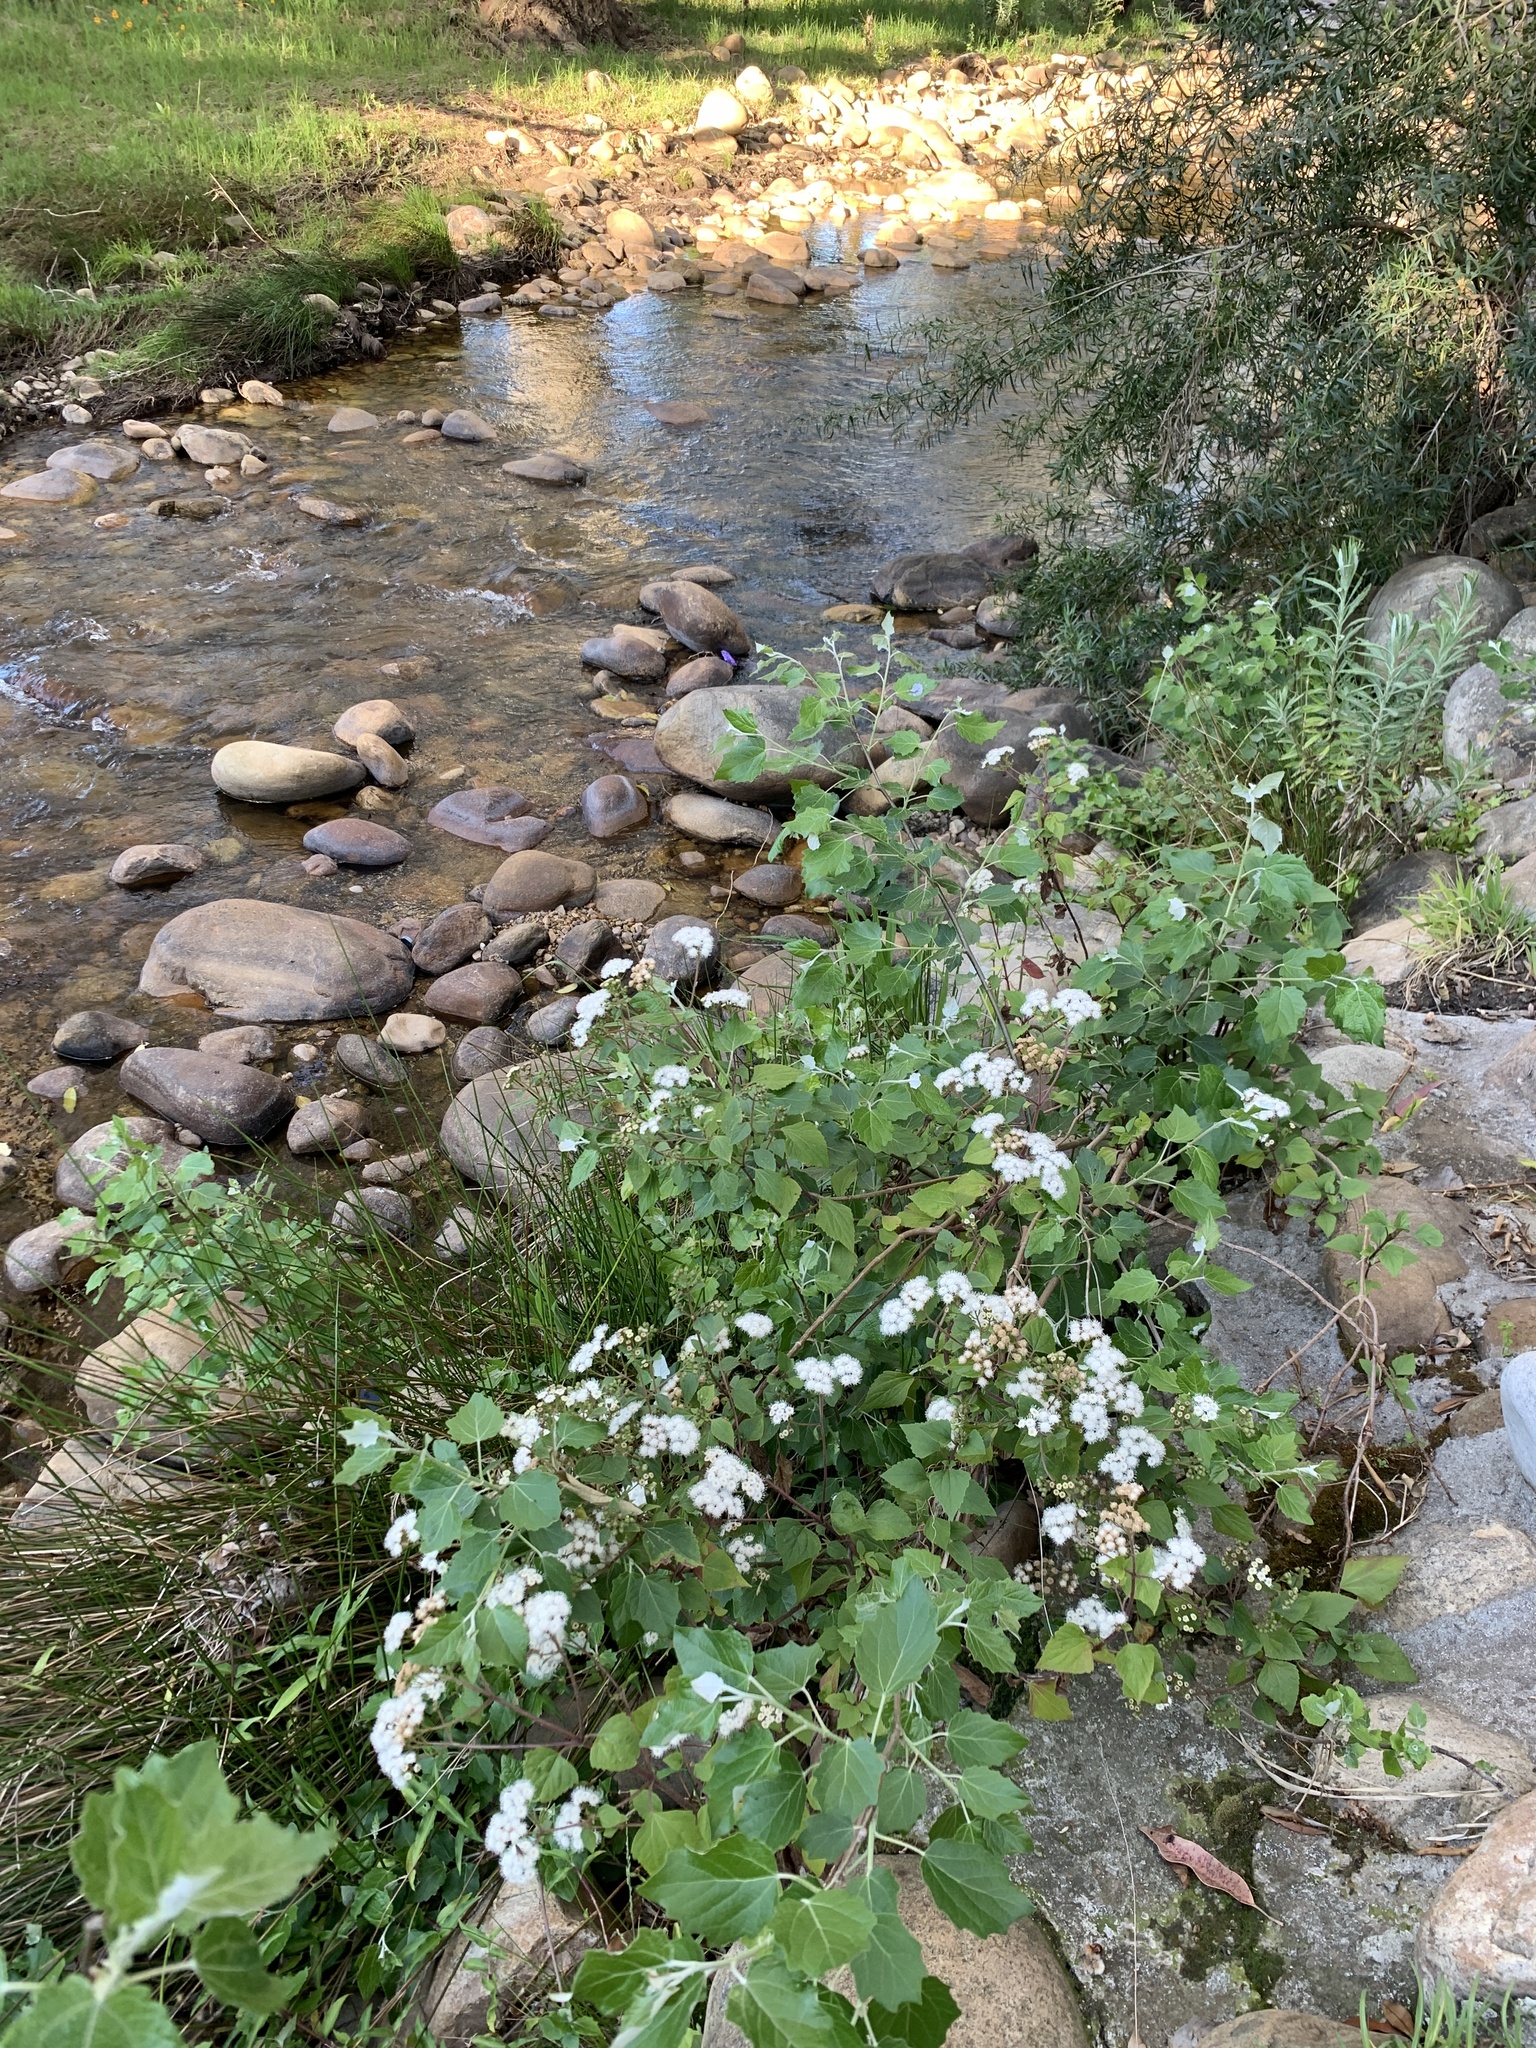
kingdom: Plantae
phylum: Tracheophyta
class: Magnoliopsida
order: Asterales
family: Asteraceae
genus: Ageratina
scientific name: Ageratina adenophora
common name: Sticky snakeroot
